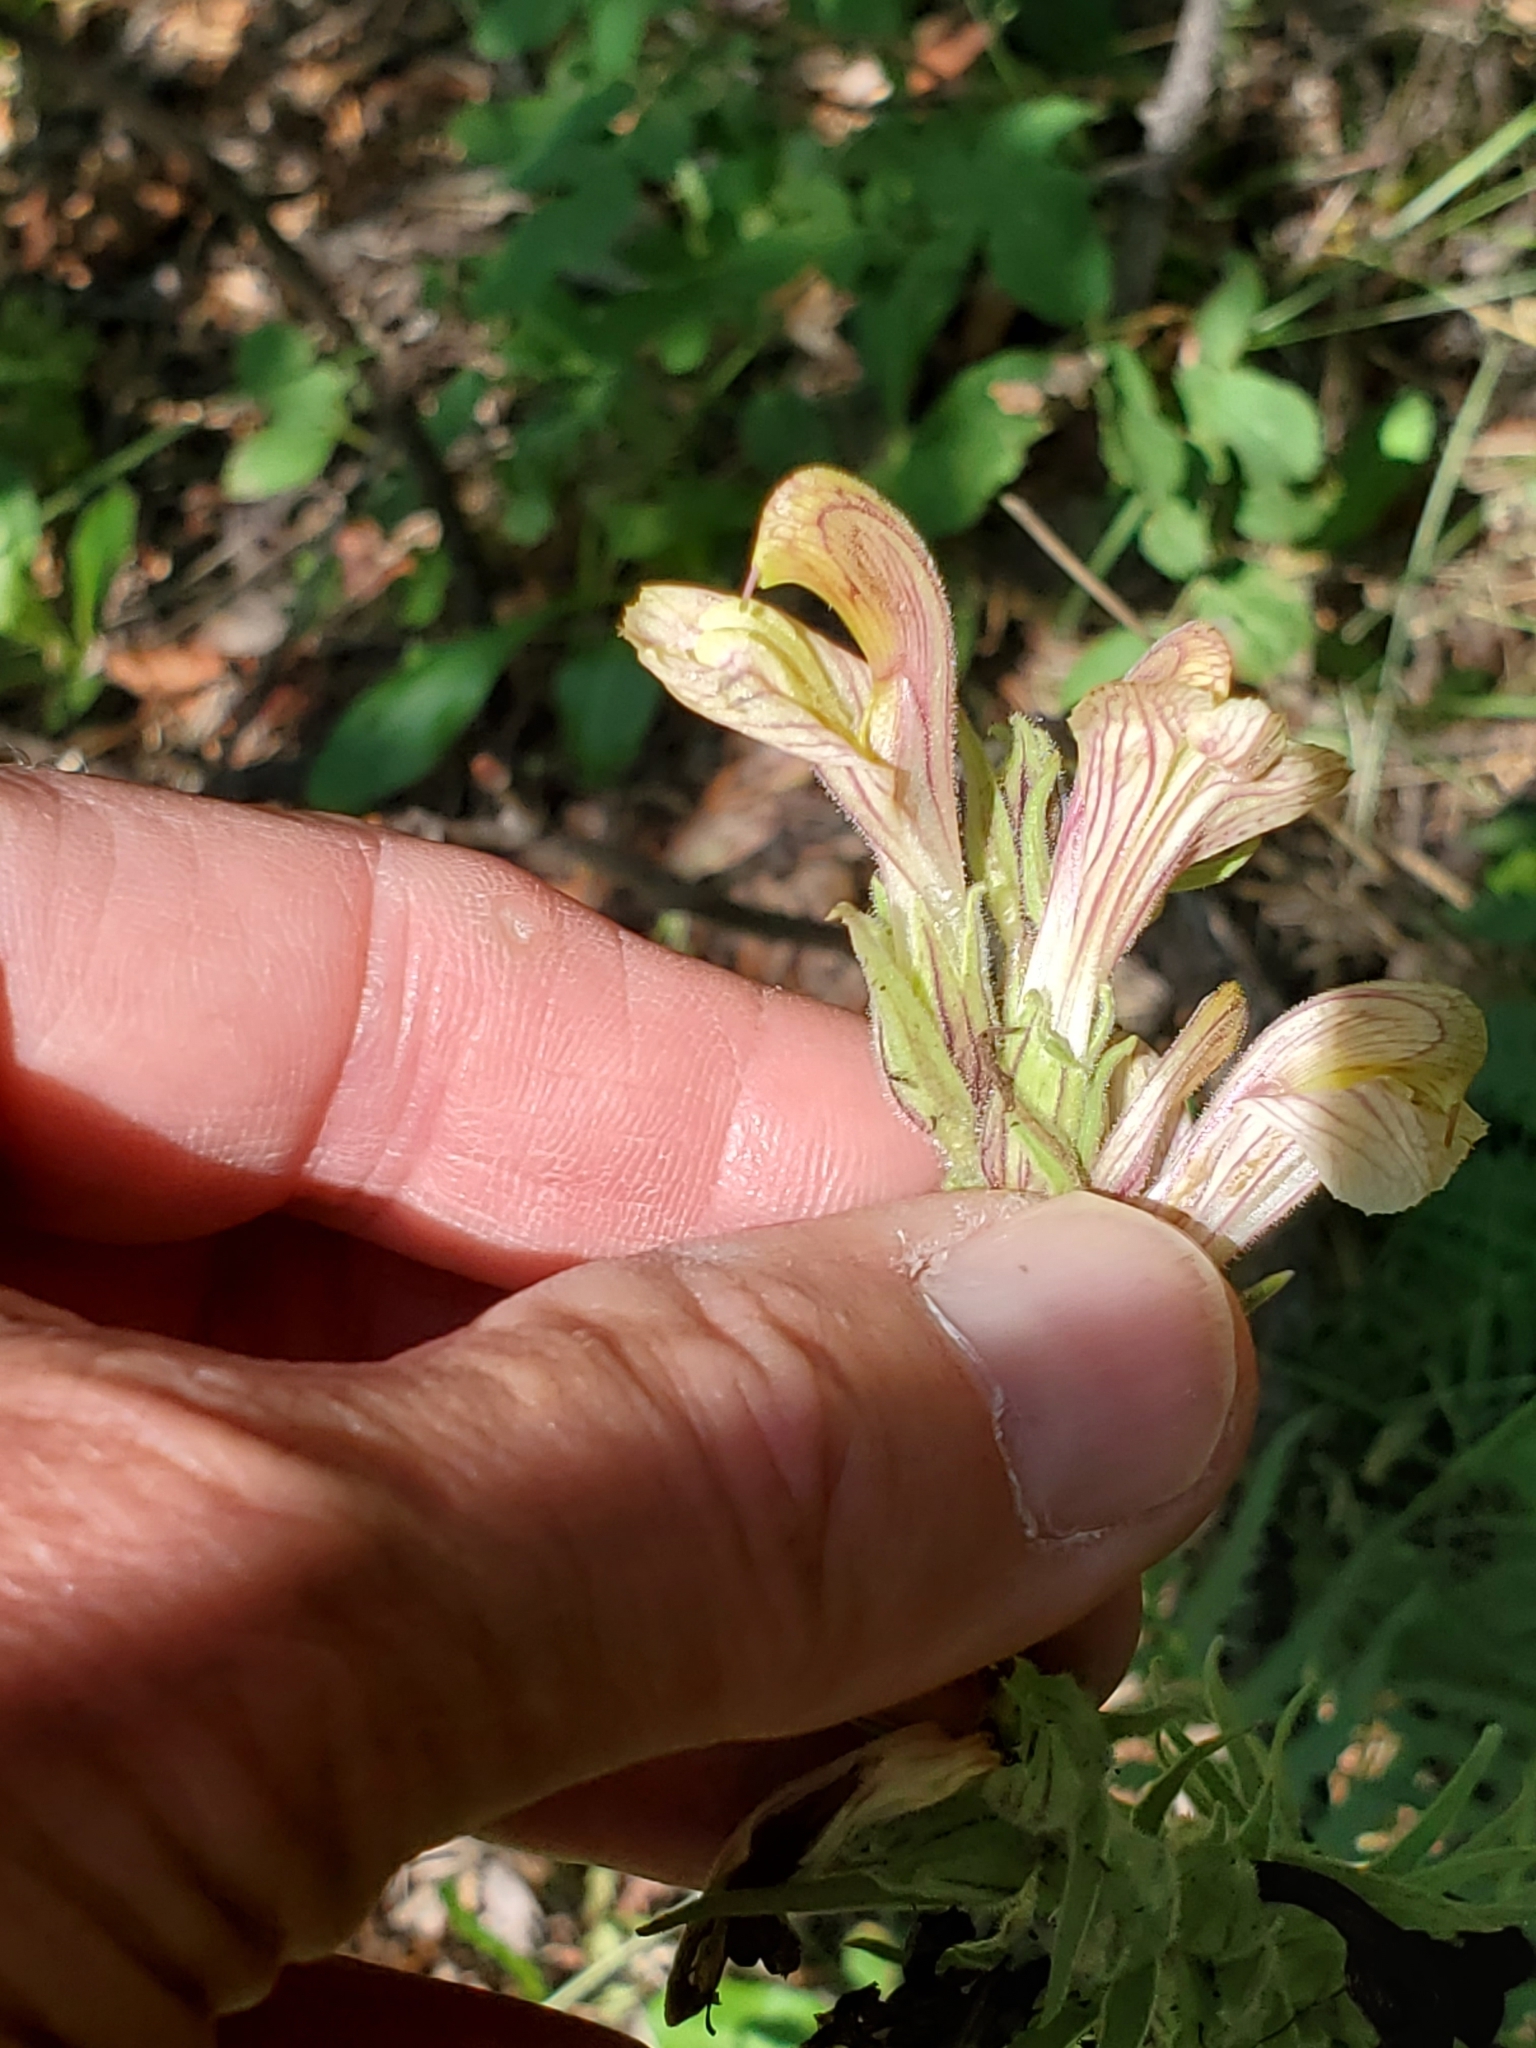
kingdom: Plantae
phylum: Tracheophyta
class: Magnoliopsida
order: Lamiales
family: Orobanchaceae
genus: Pedicularis
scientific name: Pedicularis procera
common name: Gray's lousewort
